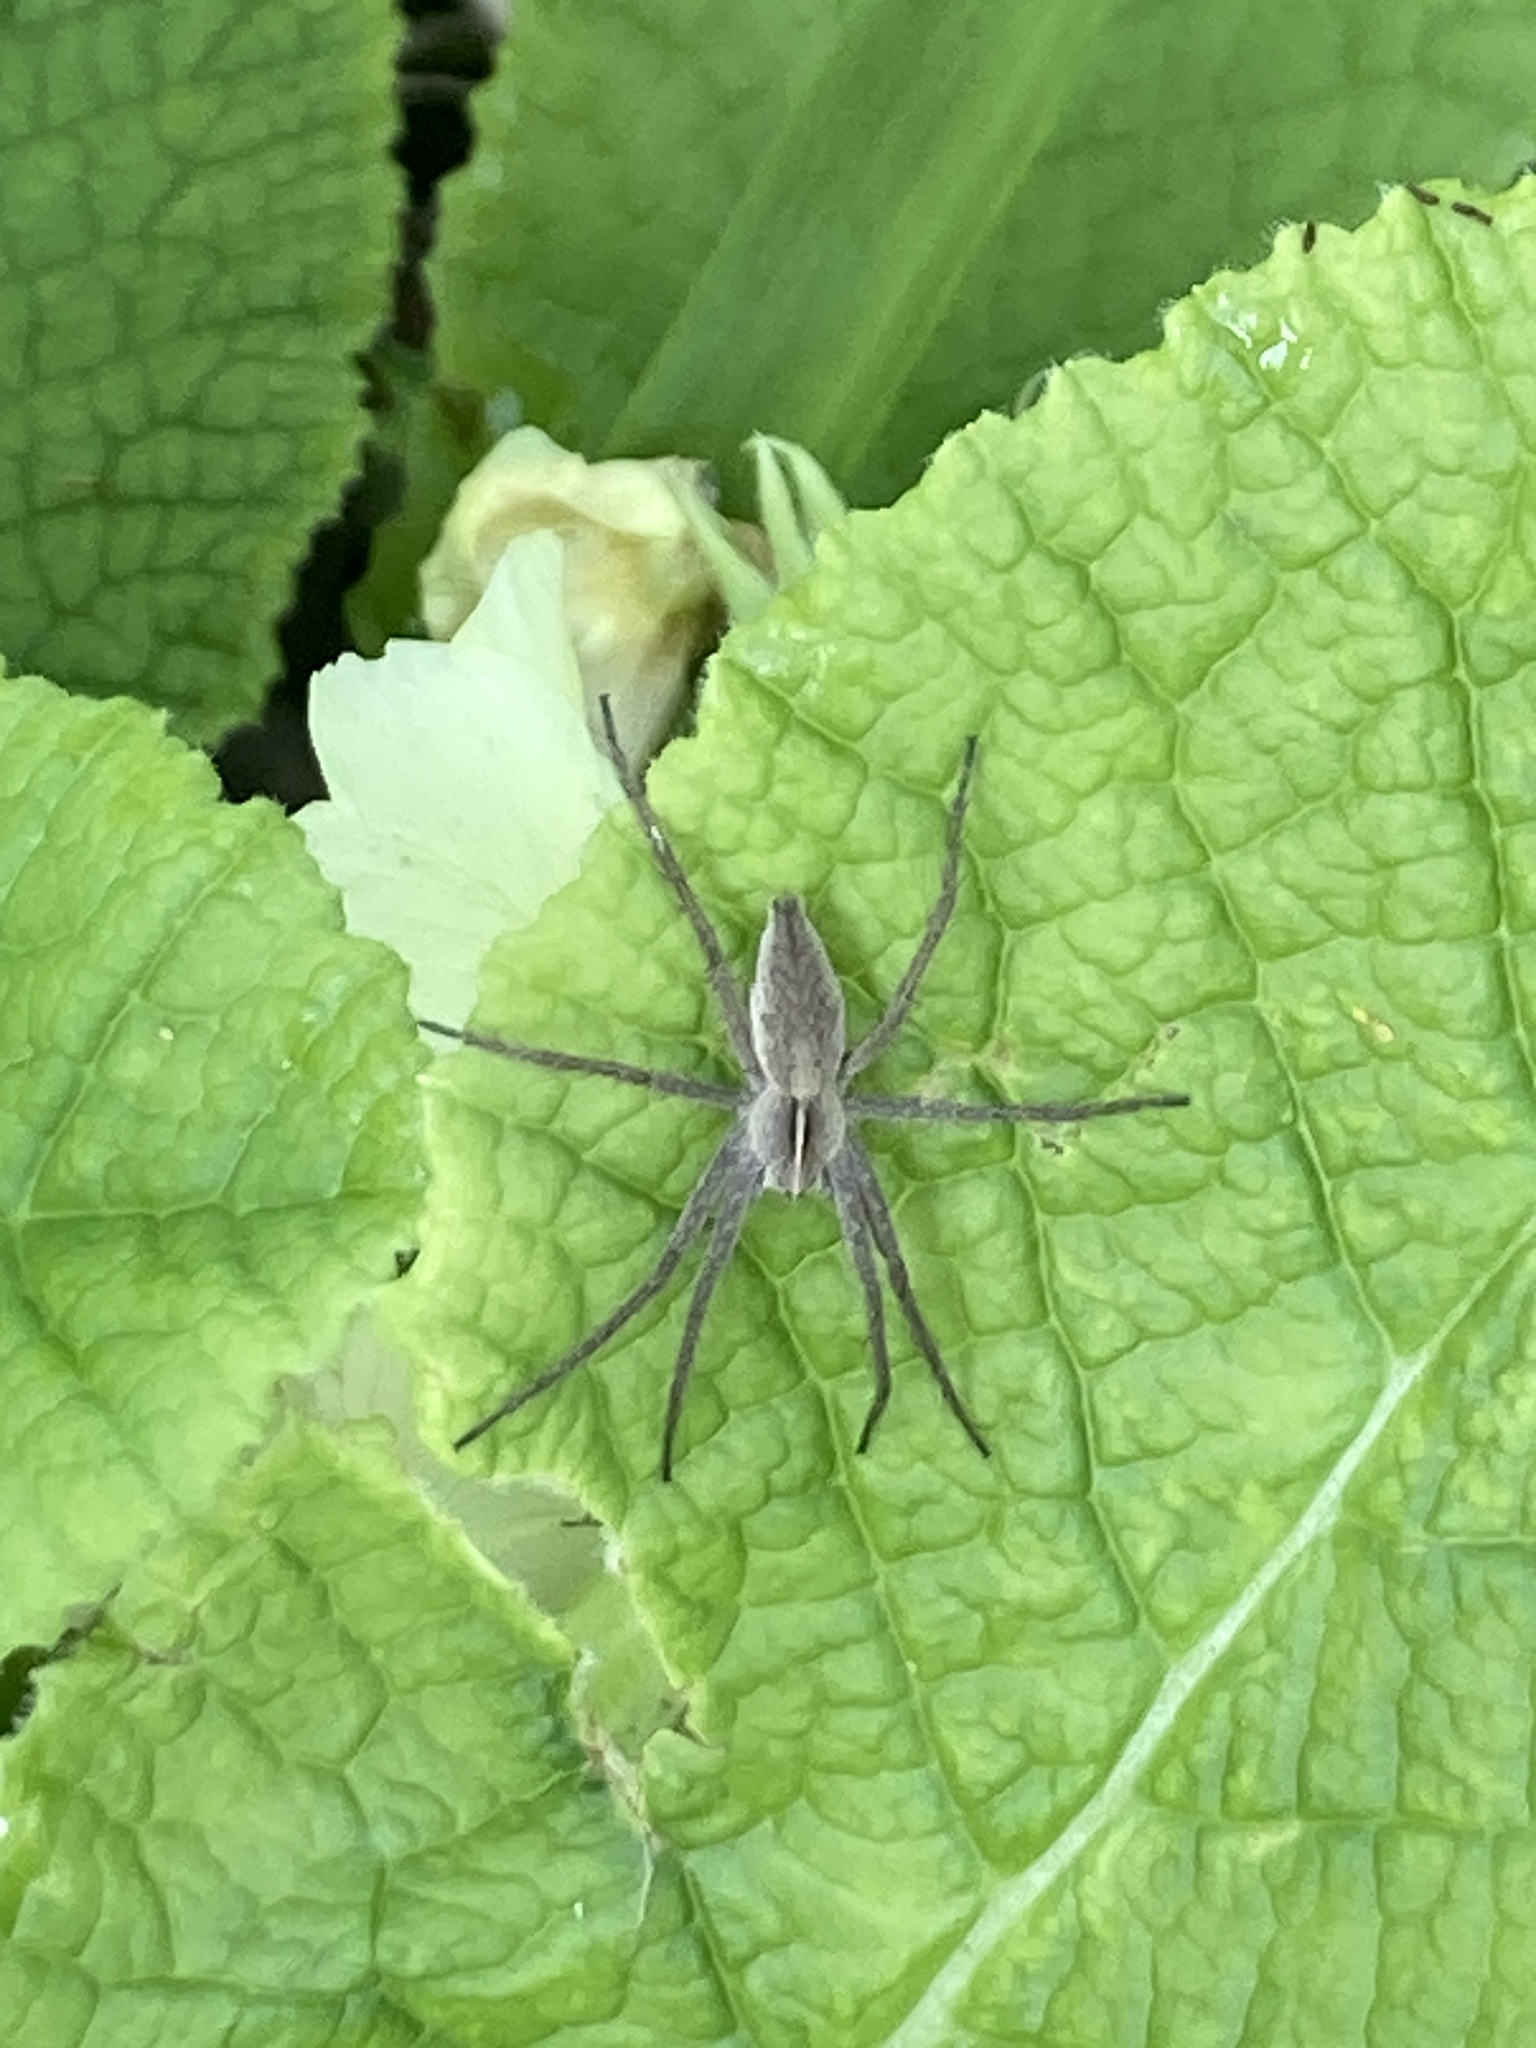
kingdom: Animalia
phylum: Arthropoda
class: Arachnida
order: Araneae
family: Pisauridae
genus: Pisaura
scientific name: Pisaura mirabilis
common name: Tent spider
